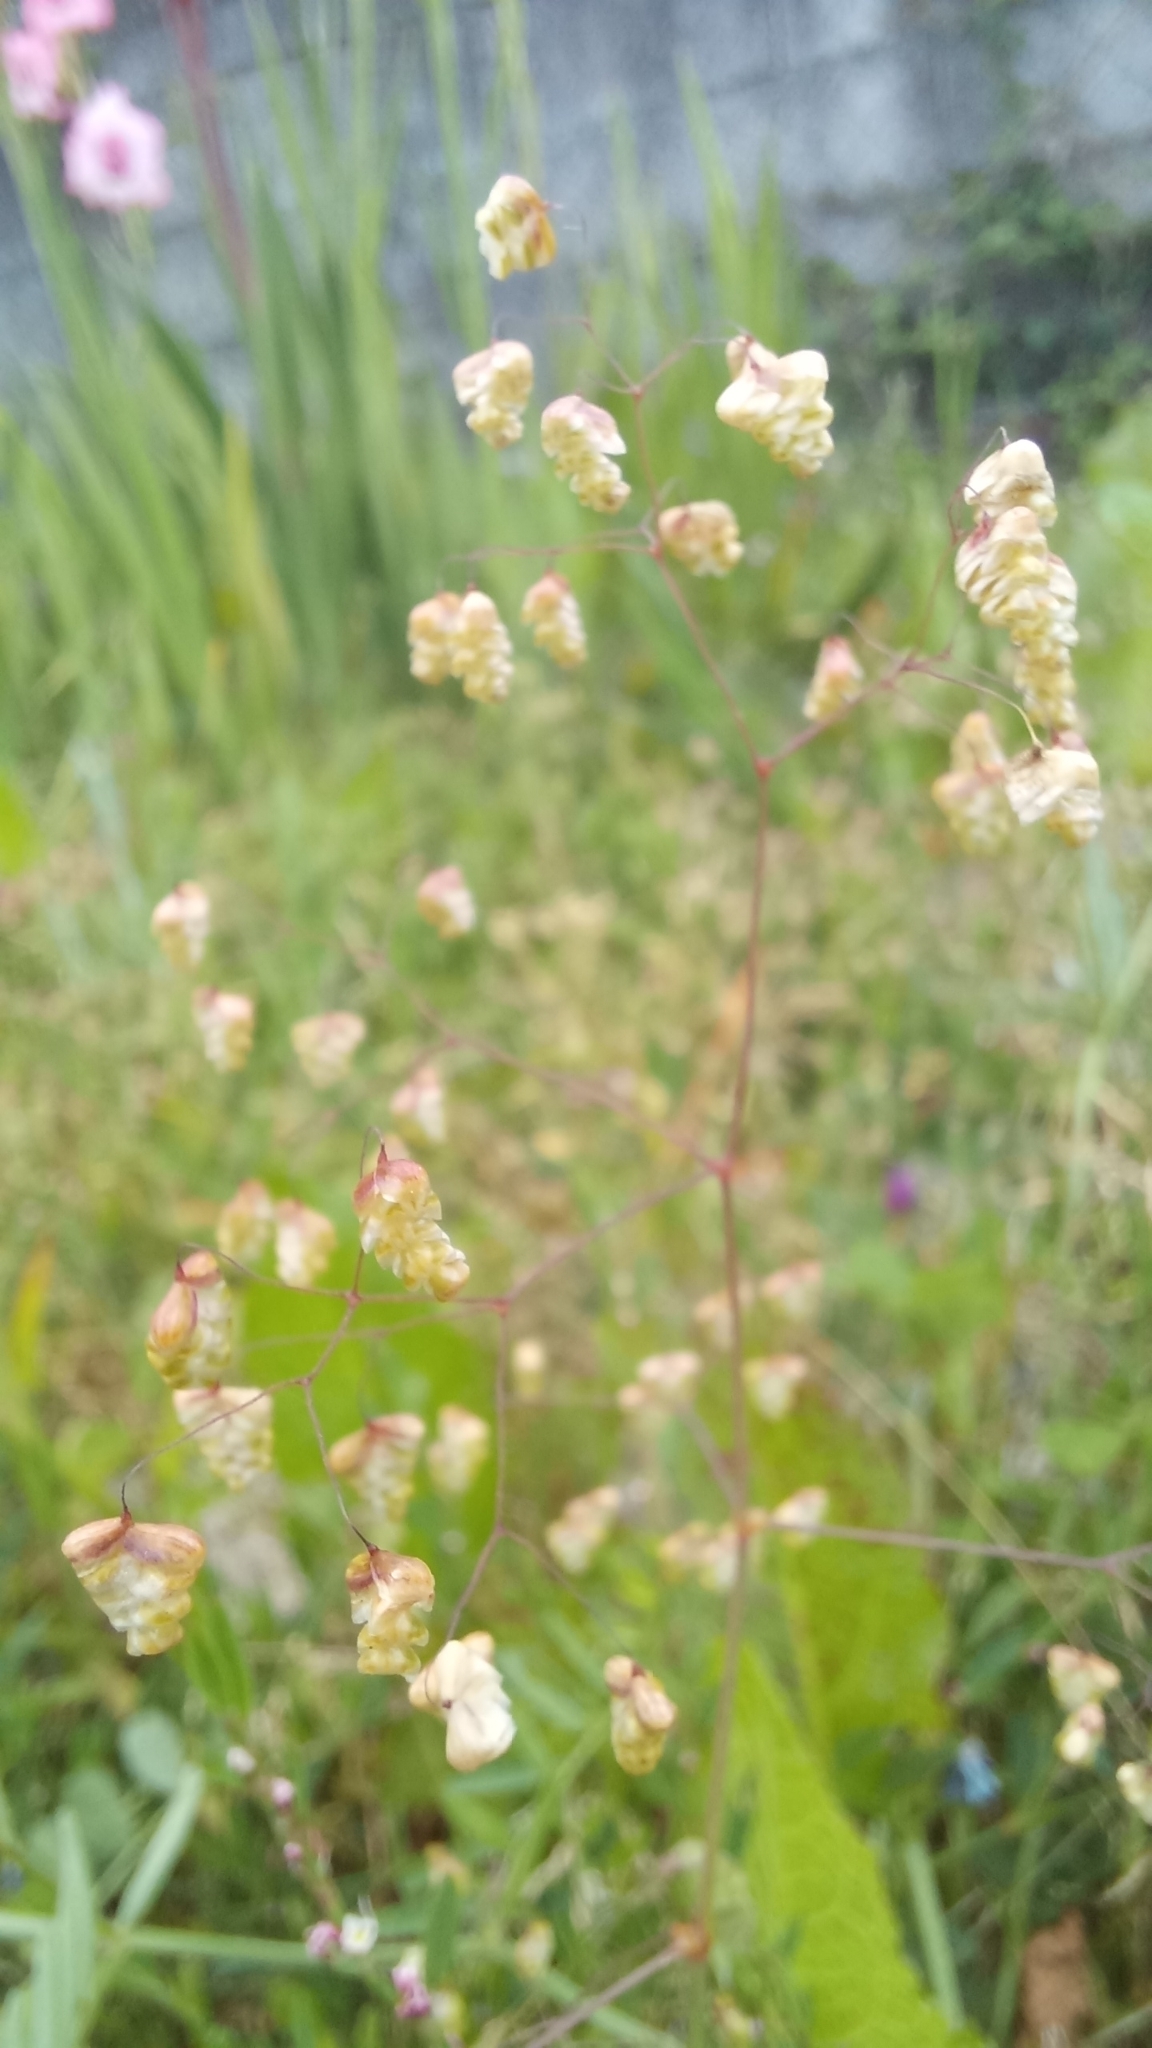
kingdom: Plantae
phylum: Tracheophyta
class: Liliopsida
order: Poales
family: Poaceae
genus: Briza
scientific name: Briza minor
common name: Lesser quaking-grass
